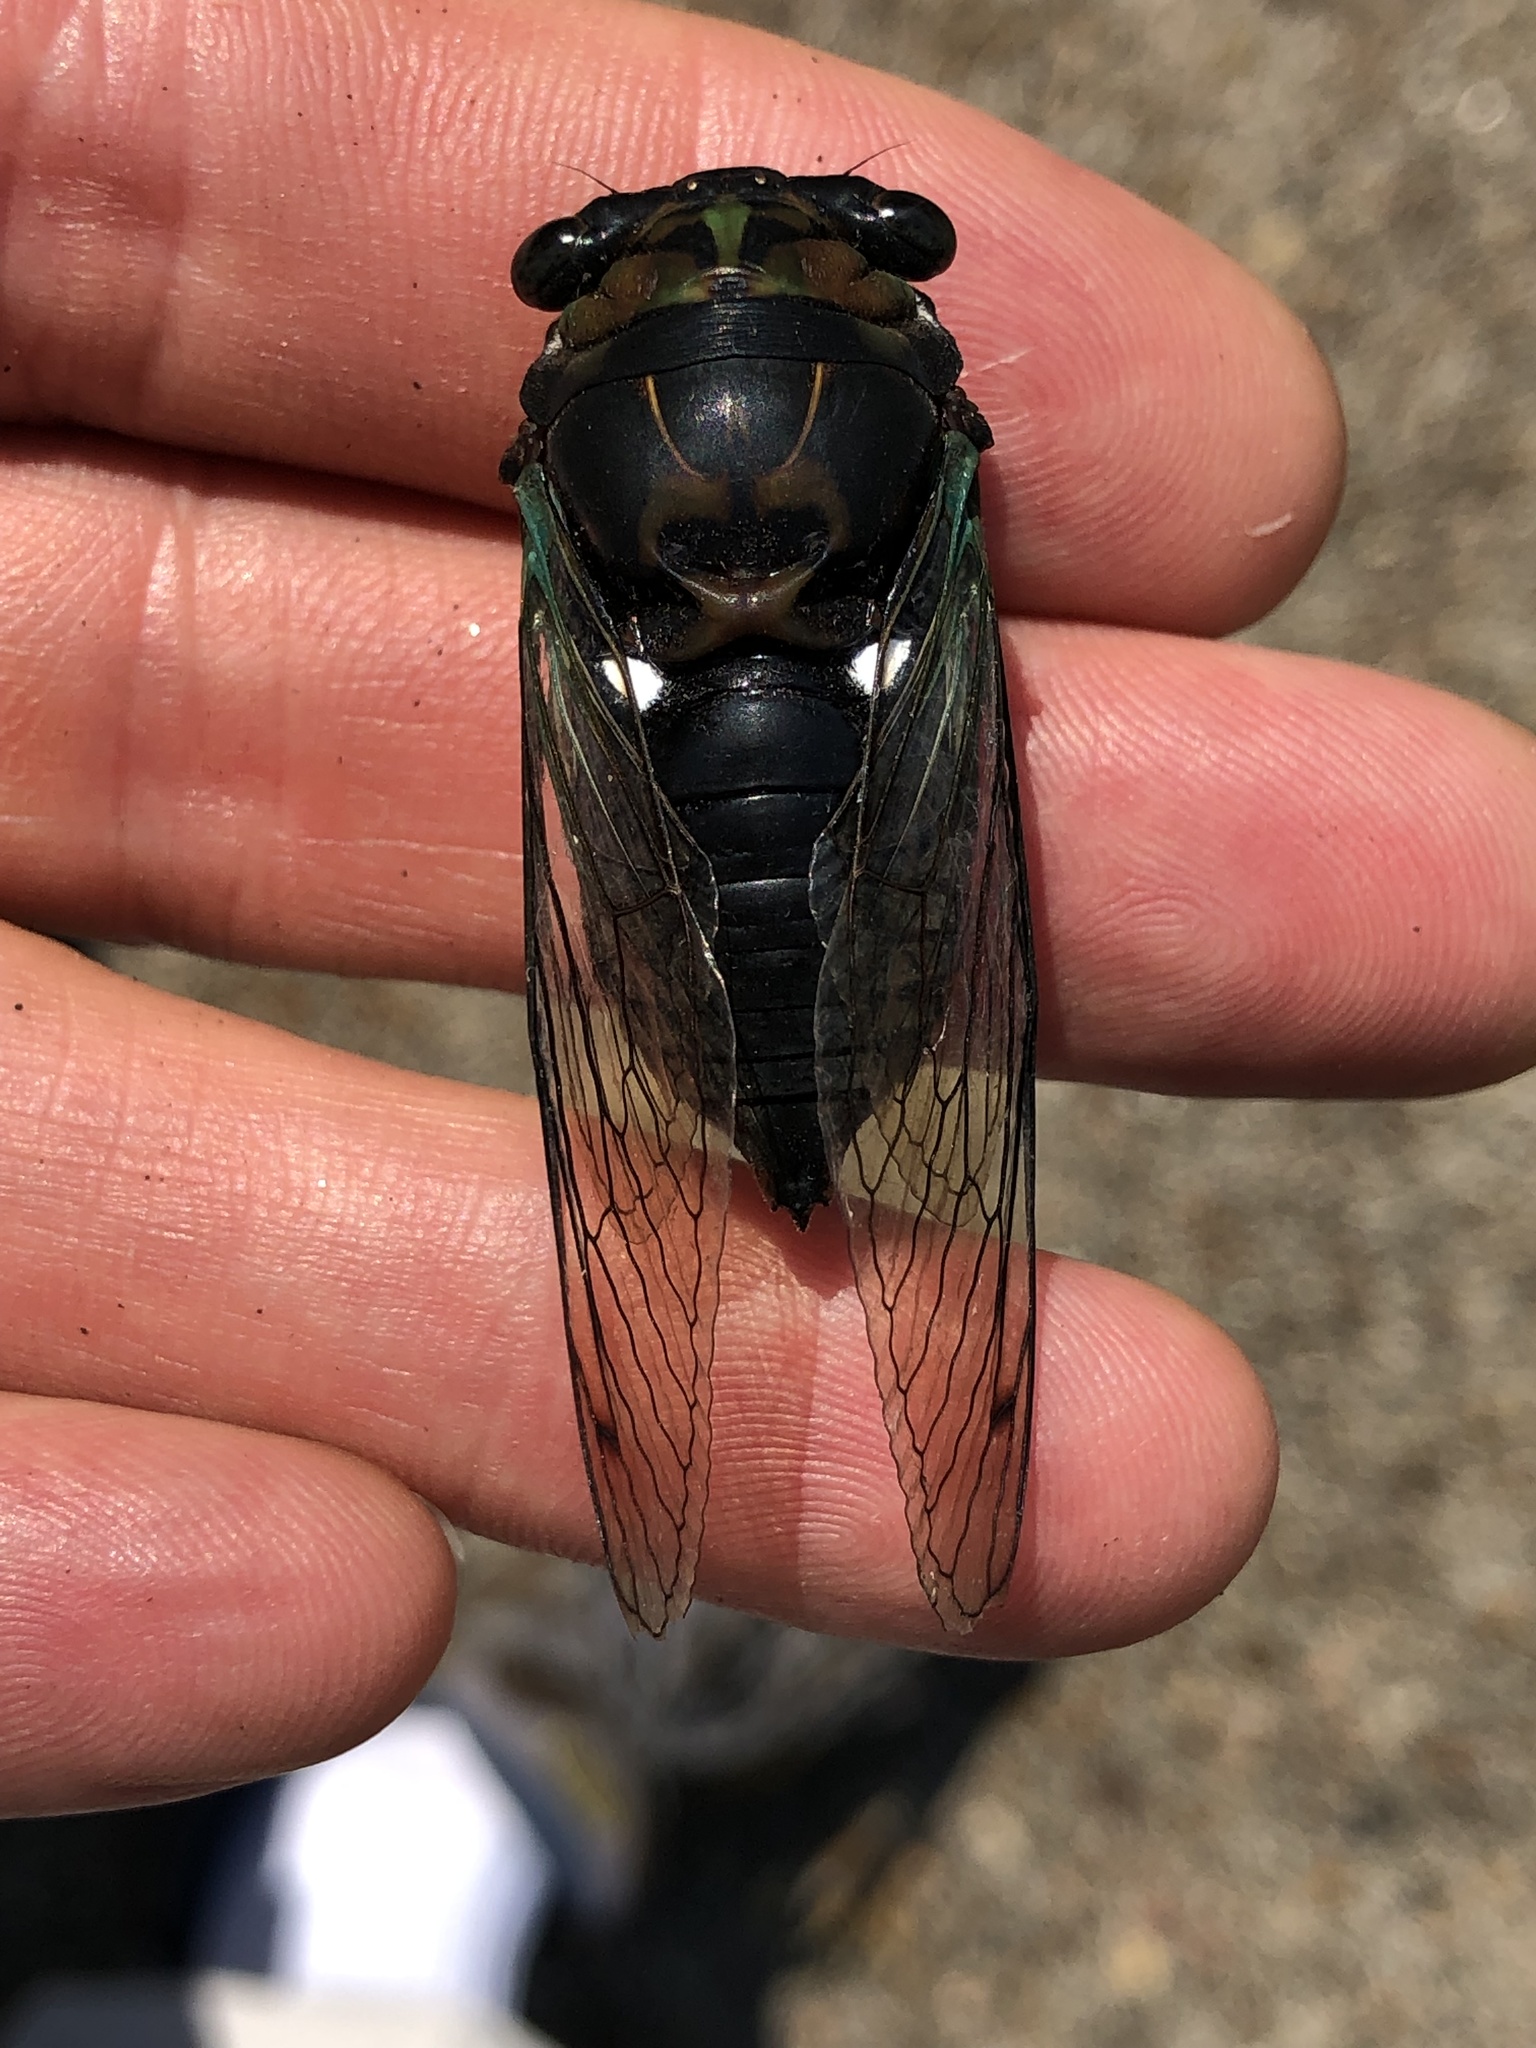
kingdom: Animalia
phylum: Arthropoda
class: Insecta
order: Hemiptera
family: Cicadidae
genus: Neotibicen
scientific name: Neotibicen tibicen
